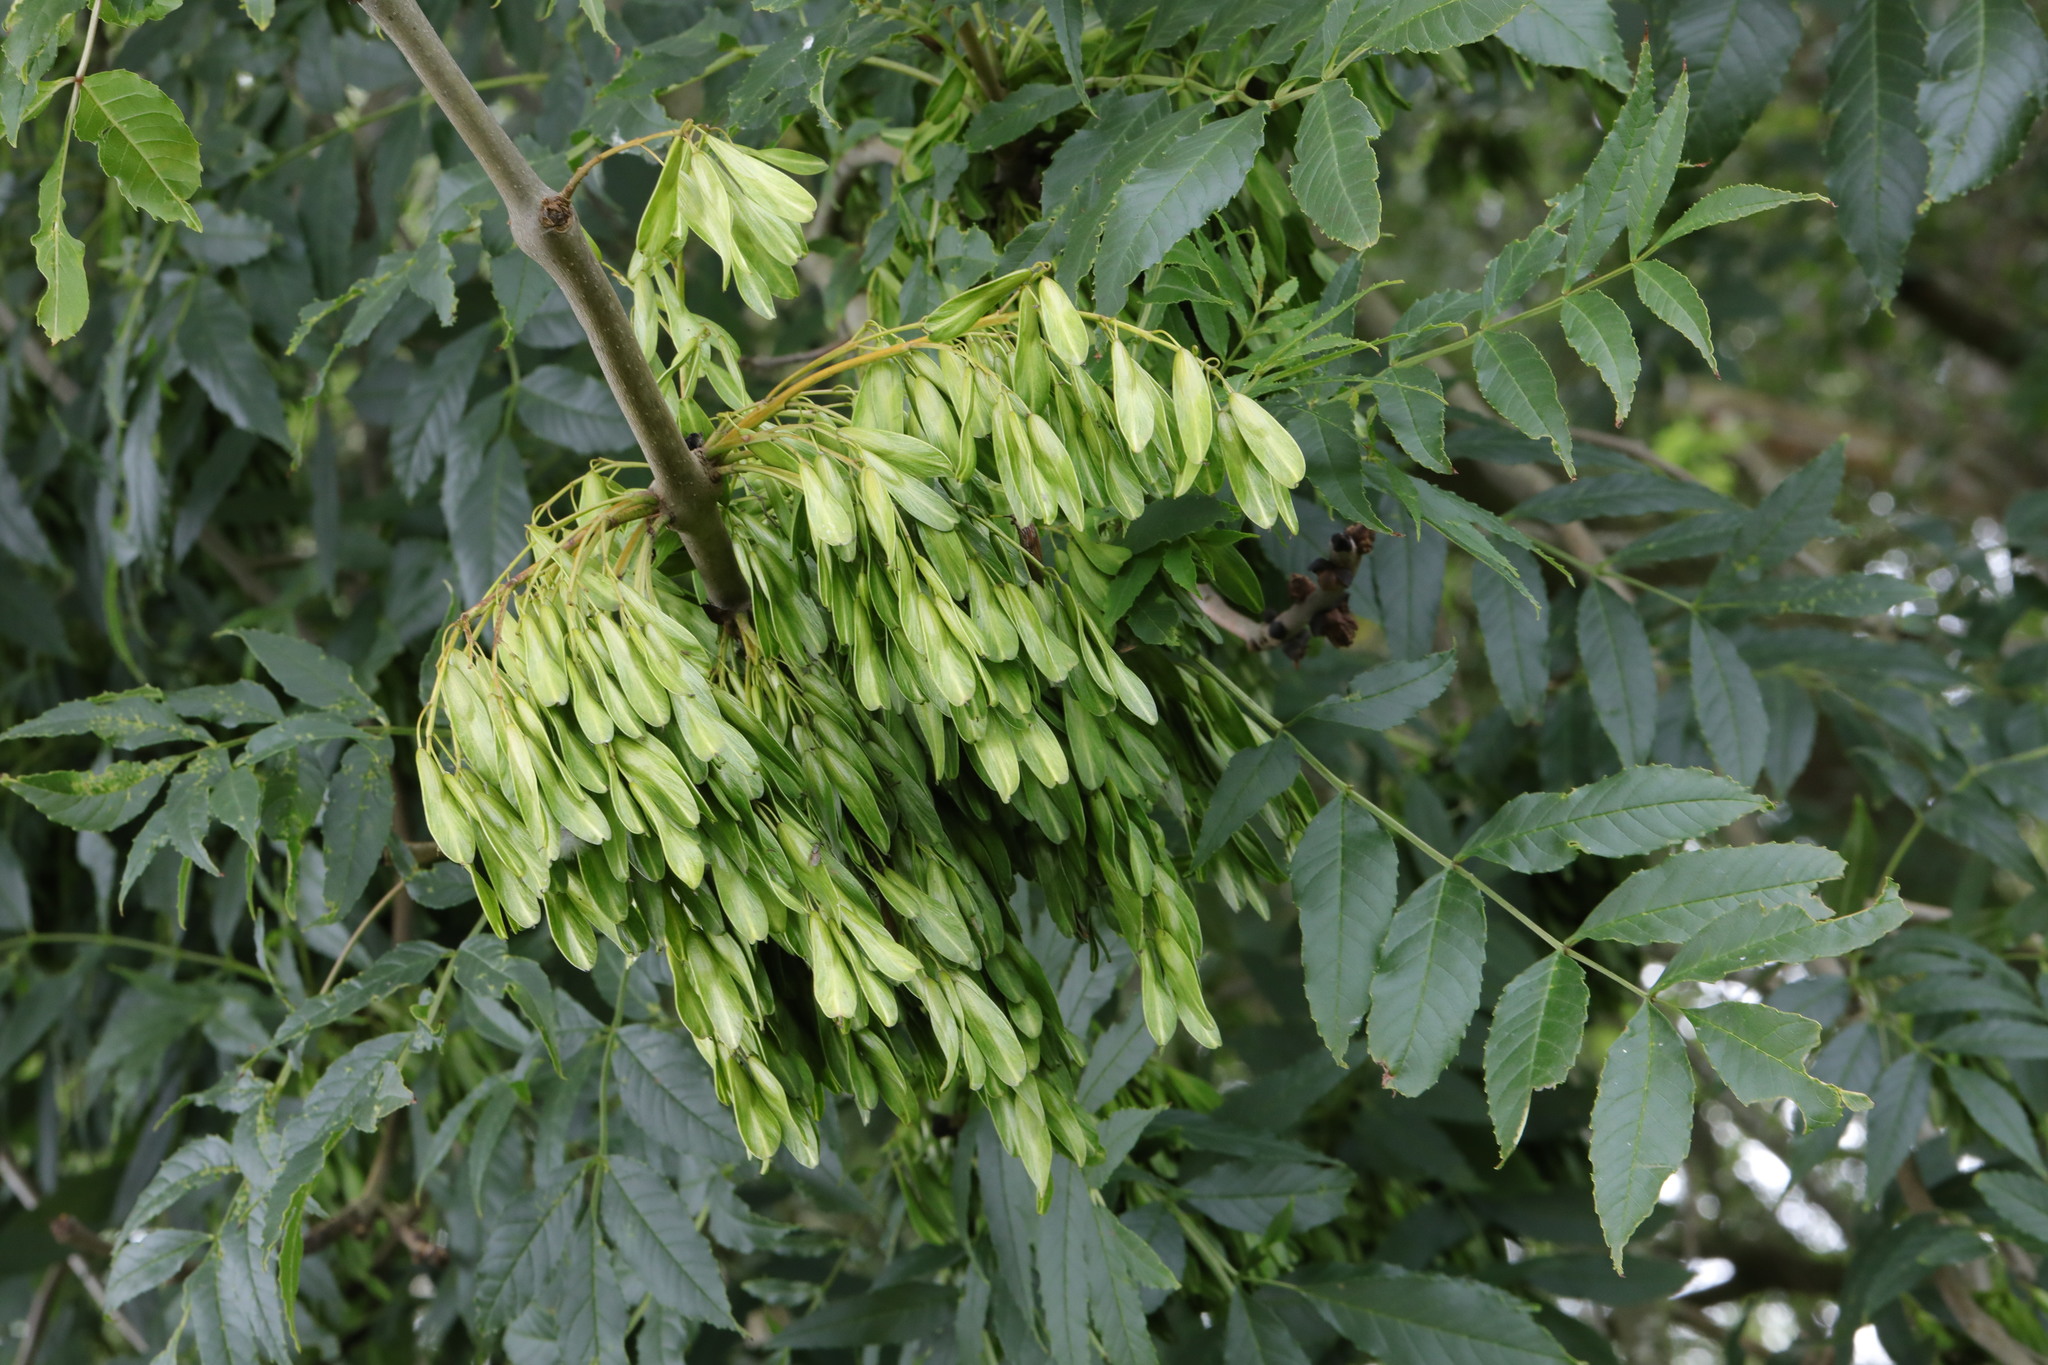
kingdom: Plantae
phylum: Tracheophyta
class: Magnoliopsida
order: Lamiales
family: Oleaceae
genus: Fraxinus
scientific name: Fraxinus excelsior
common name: European ash
